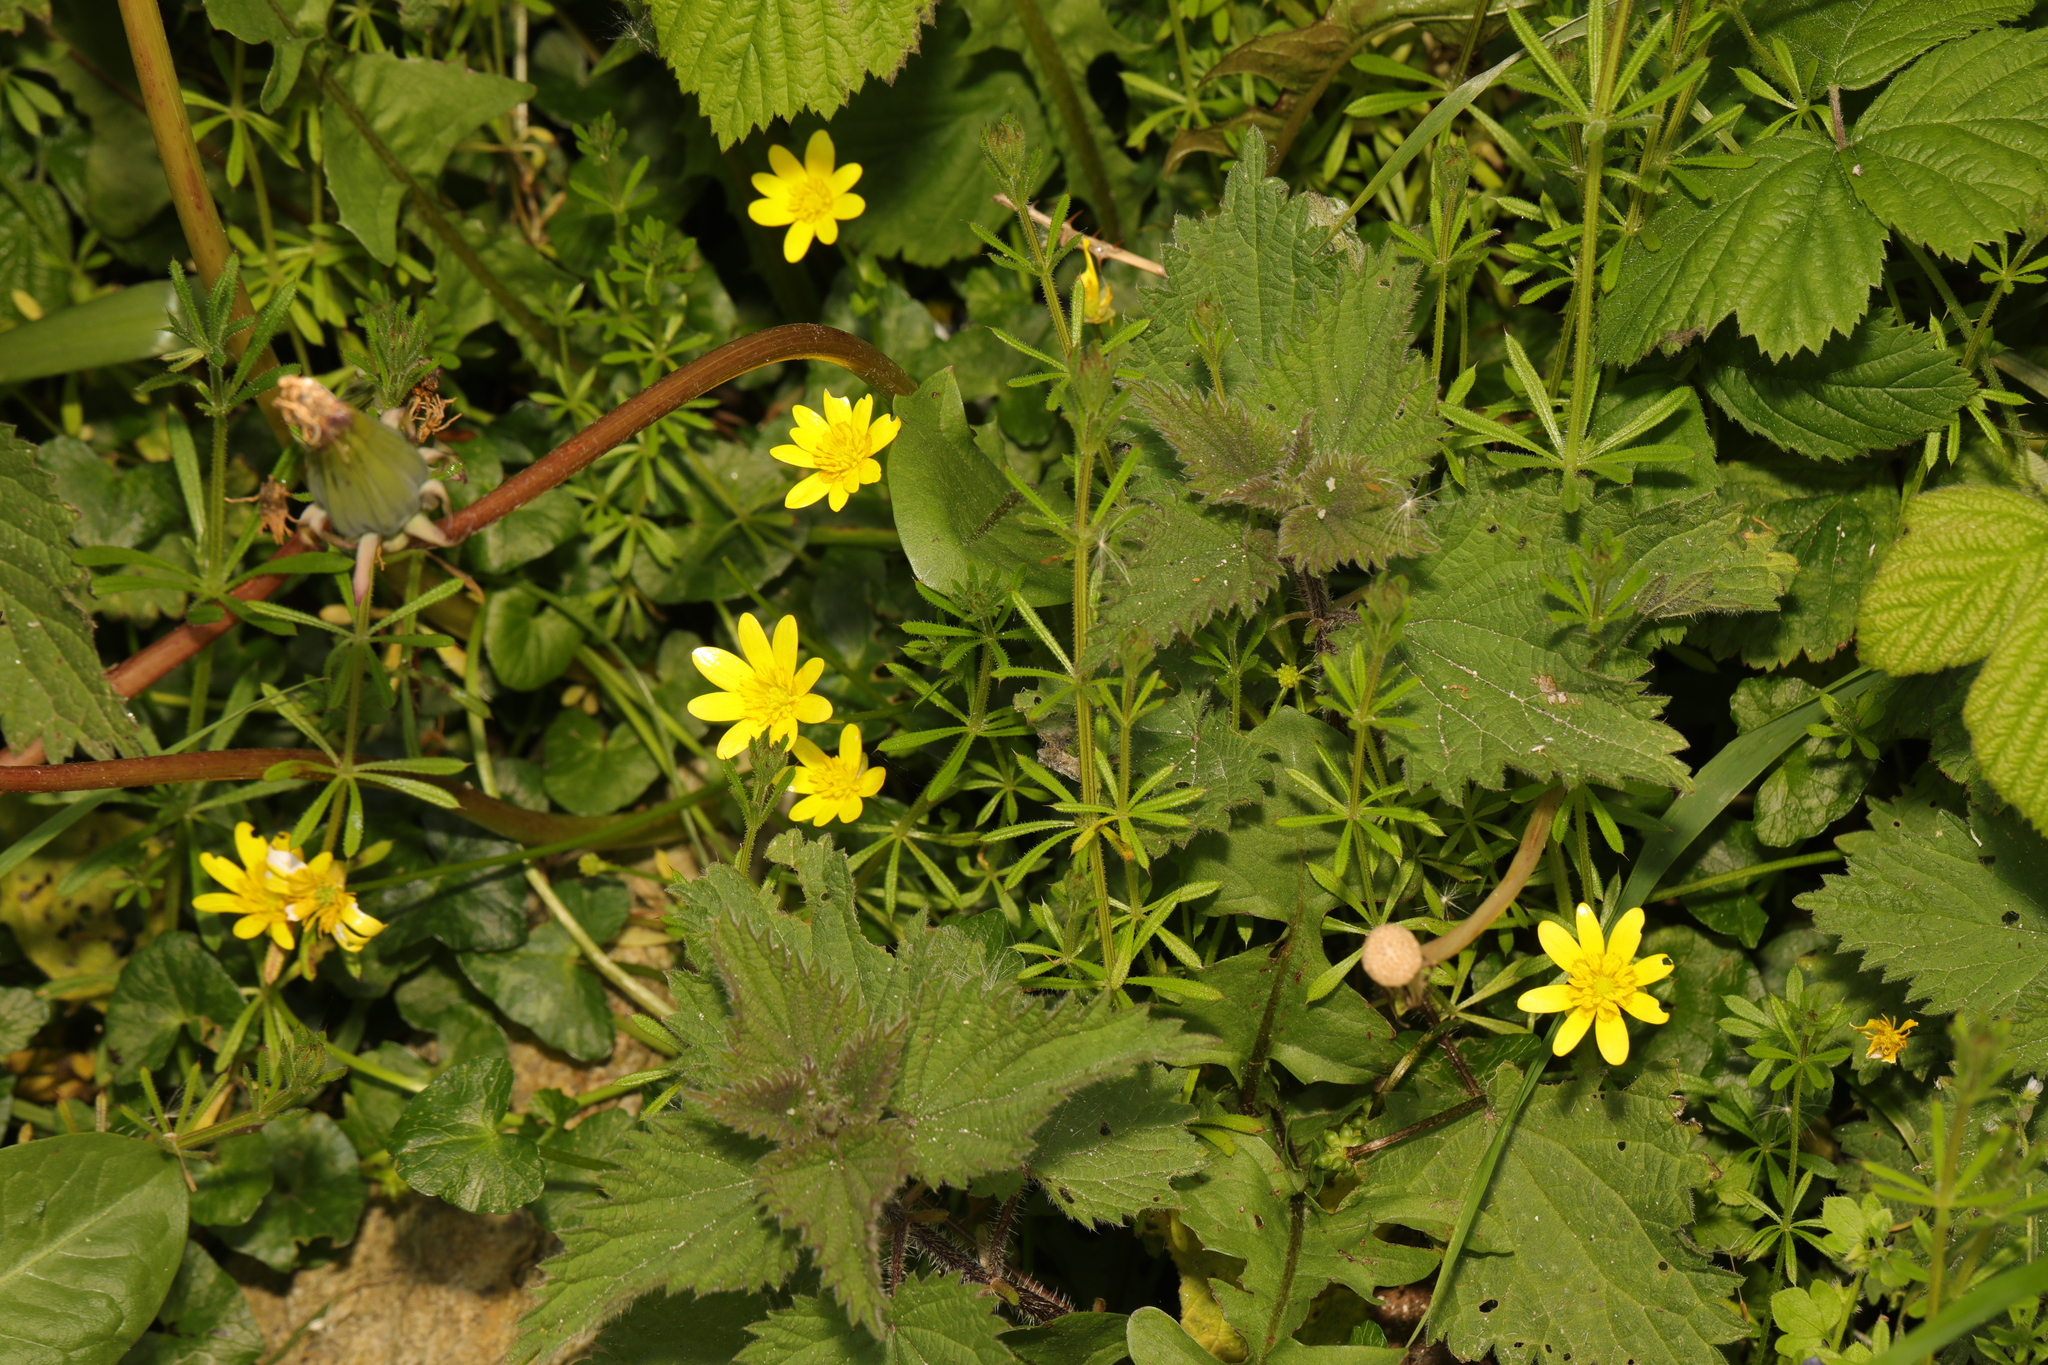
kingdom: Plantae
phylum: Tracheophyta
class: Magnoliopsida
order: Ranunculales
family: Ranunculaceae
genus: Ficaria
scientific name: Ficaria verna
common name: Lesser celandine
